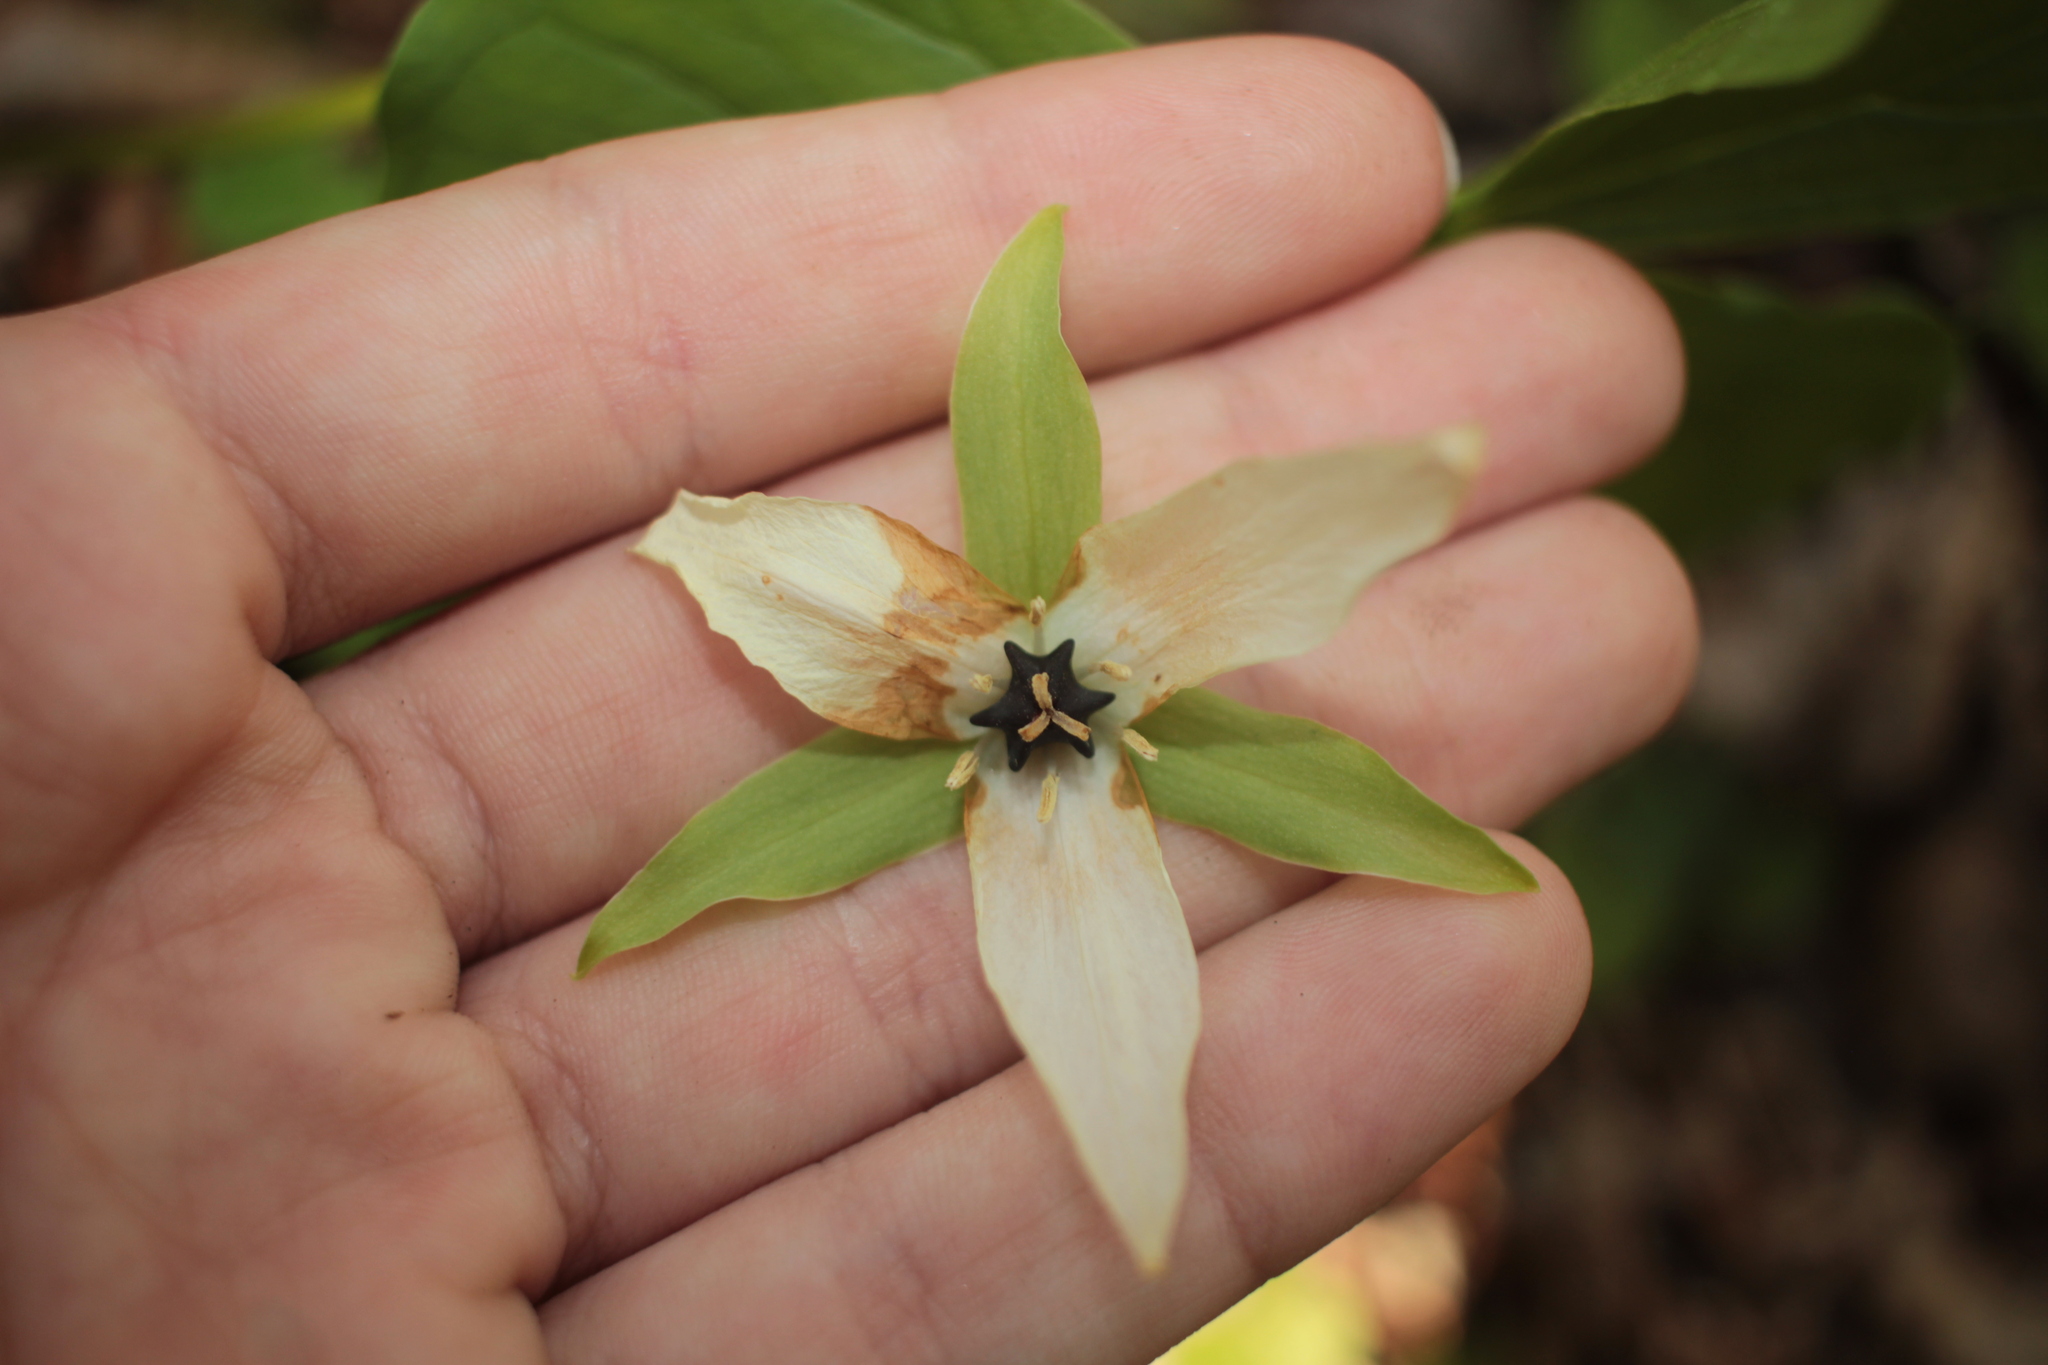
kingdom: Plantae
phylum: Tracheophyta
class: Liliopsida
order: Liliales
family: Melanthiaceae
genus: Trillium
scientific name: Trillium erectum
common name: Purple trillium
